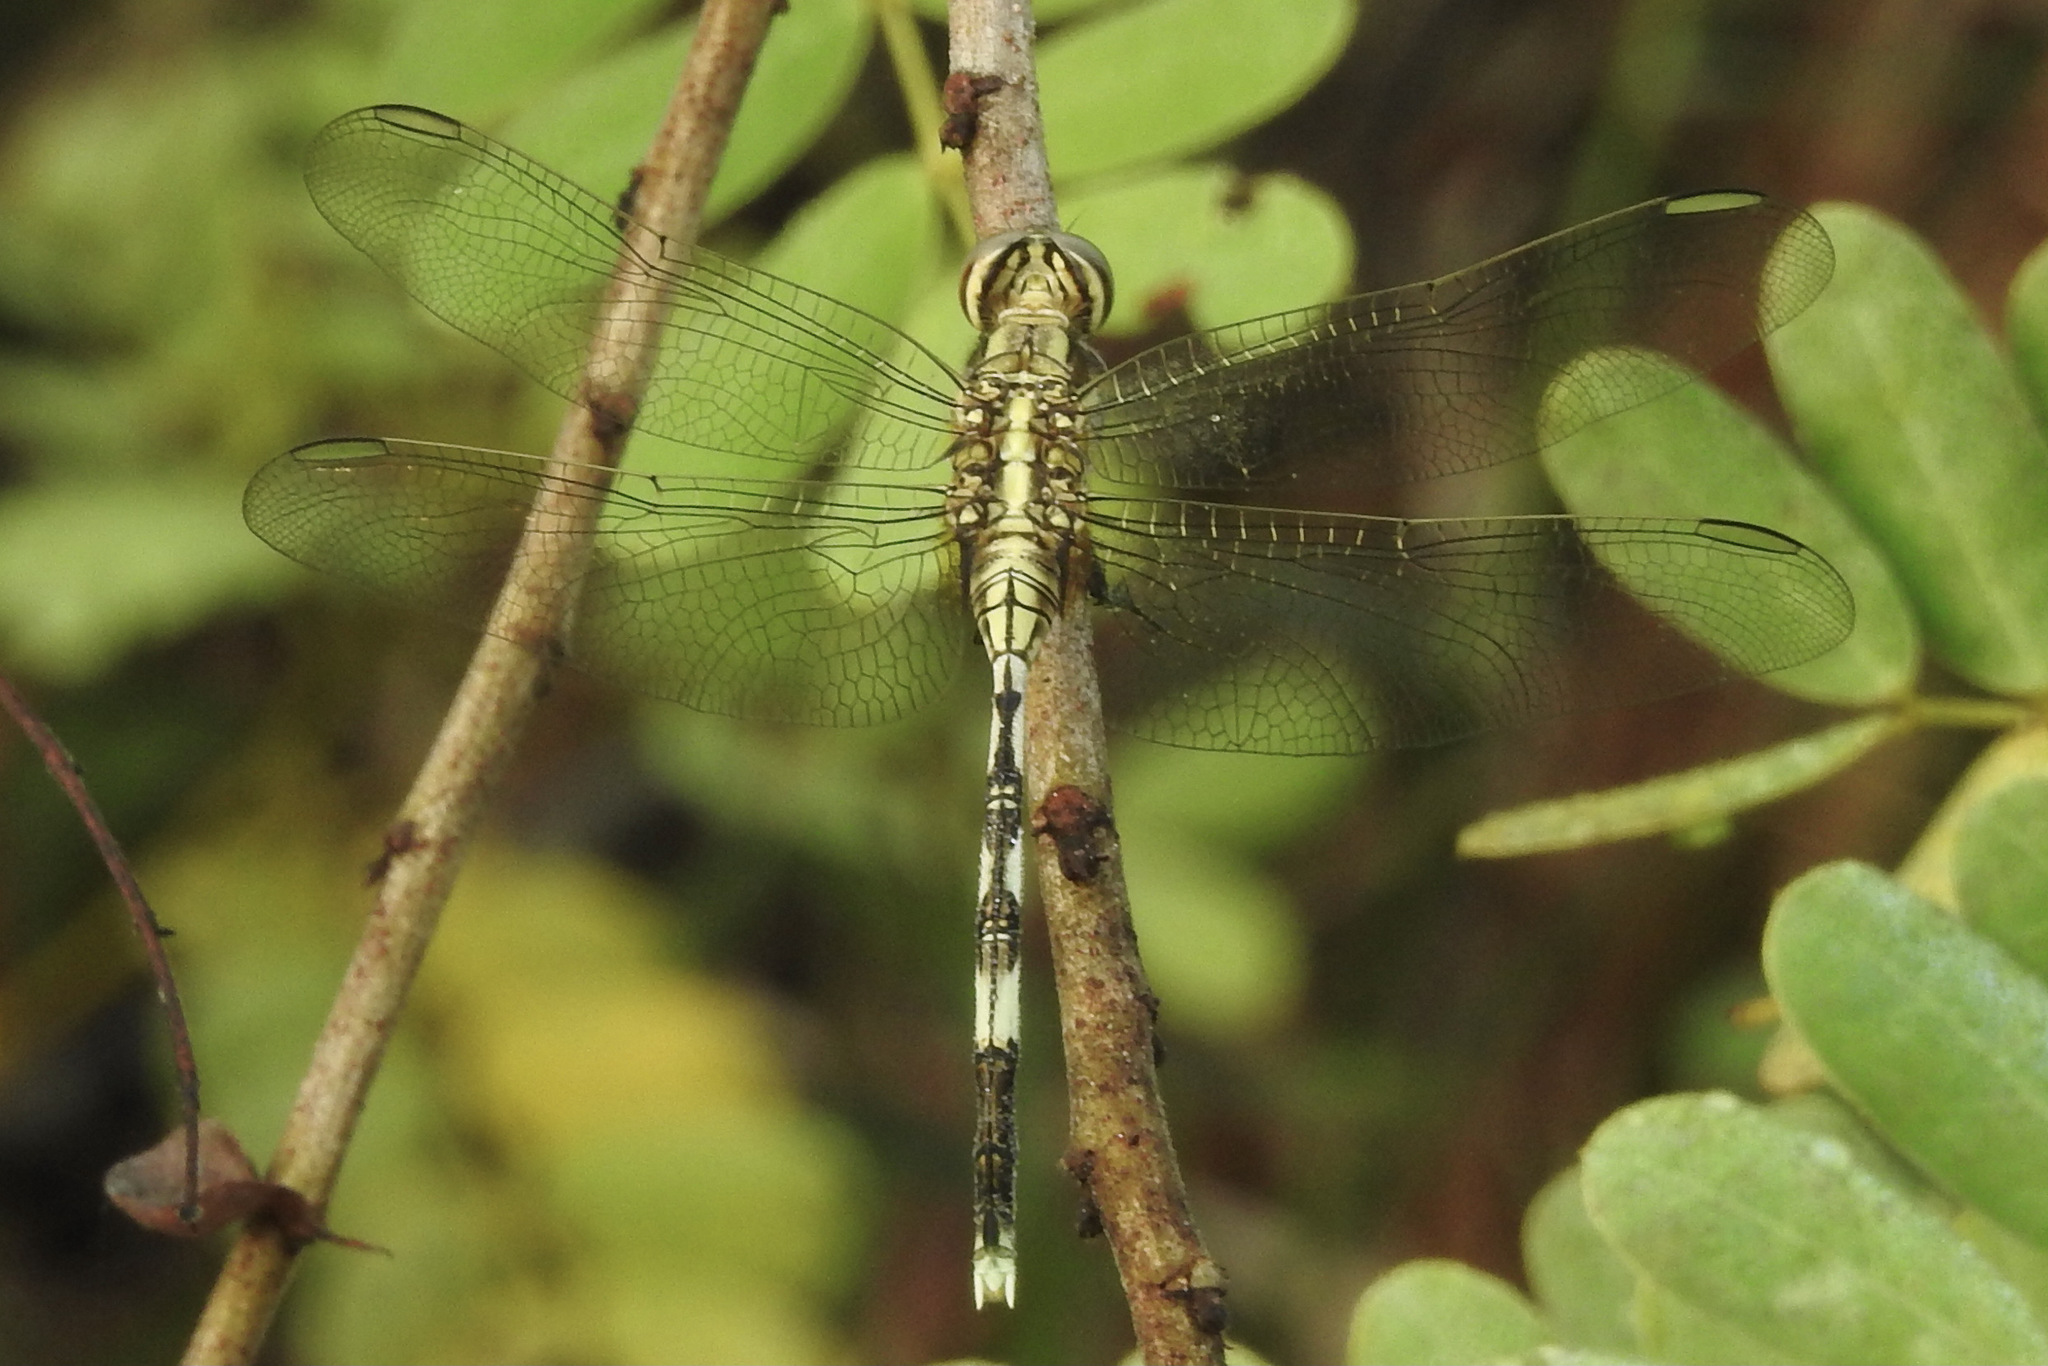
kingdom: Animalia
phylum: Arthropoda
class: Insecta
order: Odonata
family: Libellulidae
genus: Orthetrum
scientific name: Orthetrum sabina
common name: Slender skimmer
